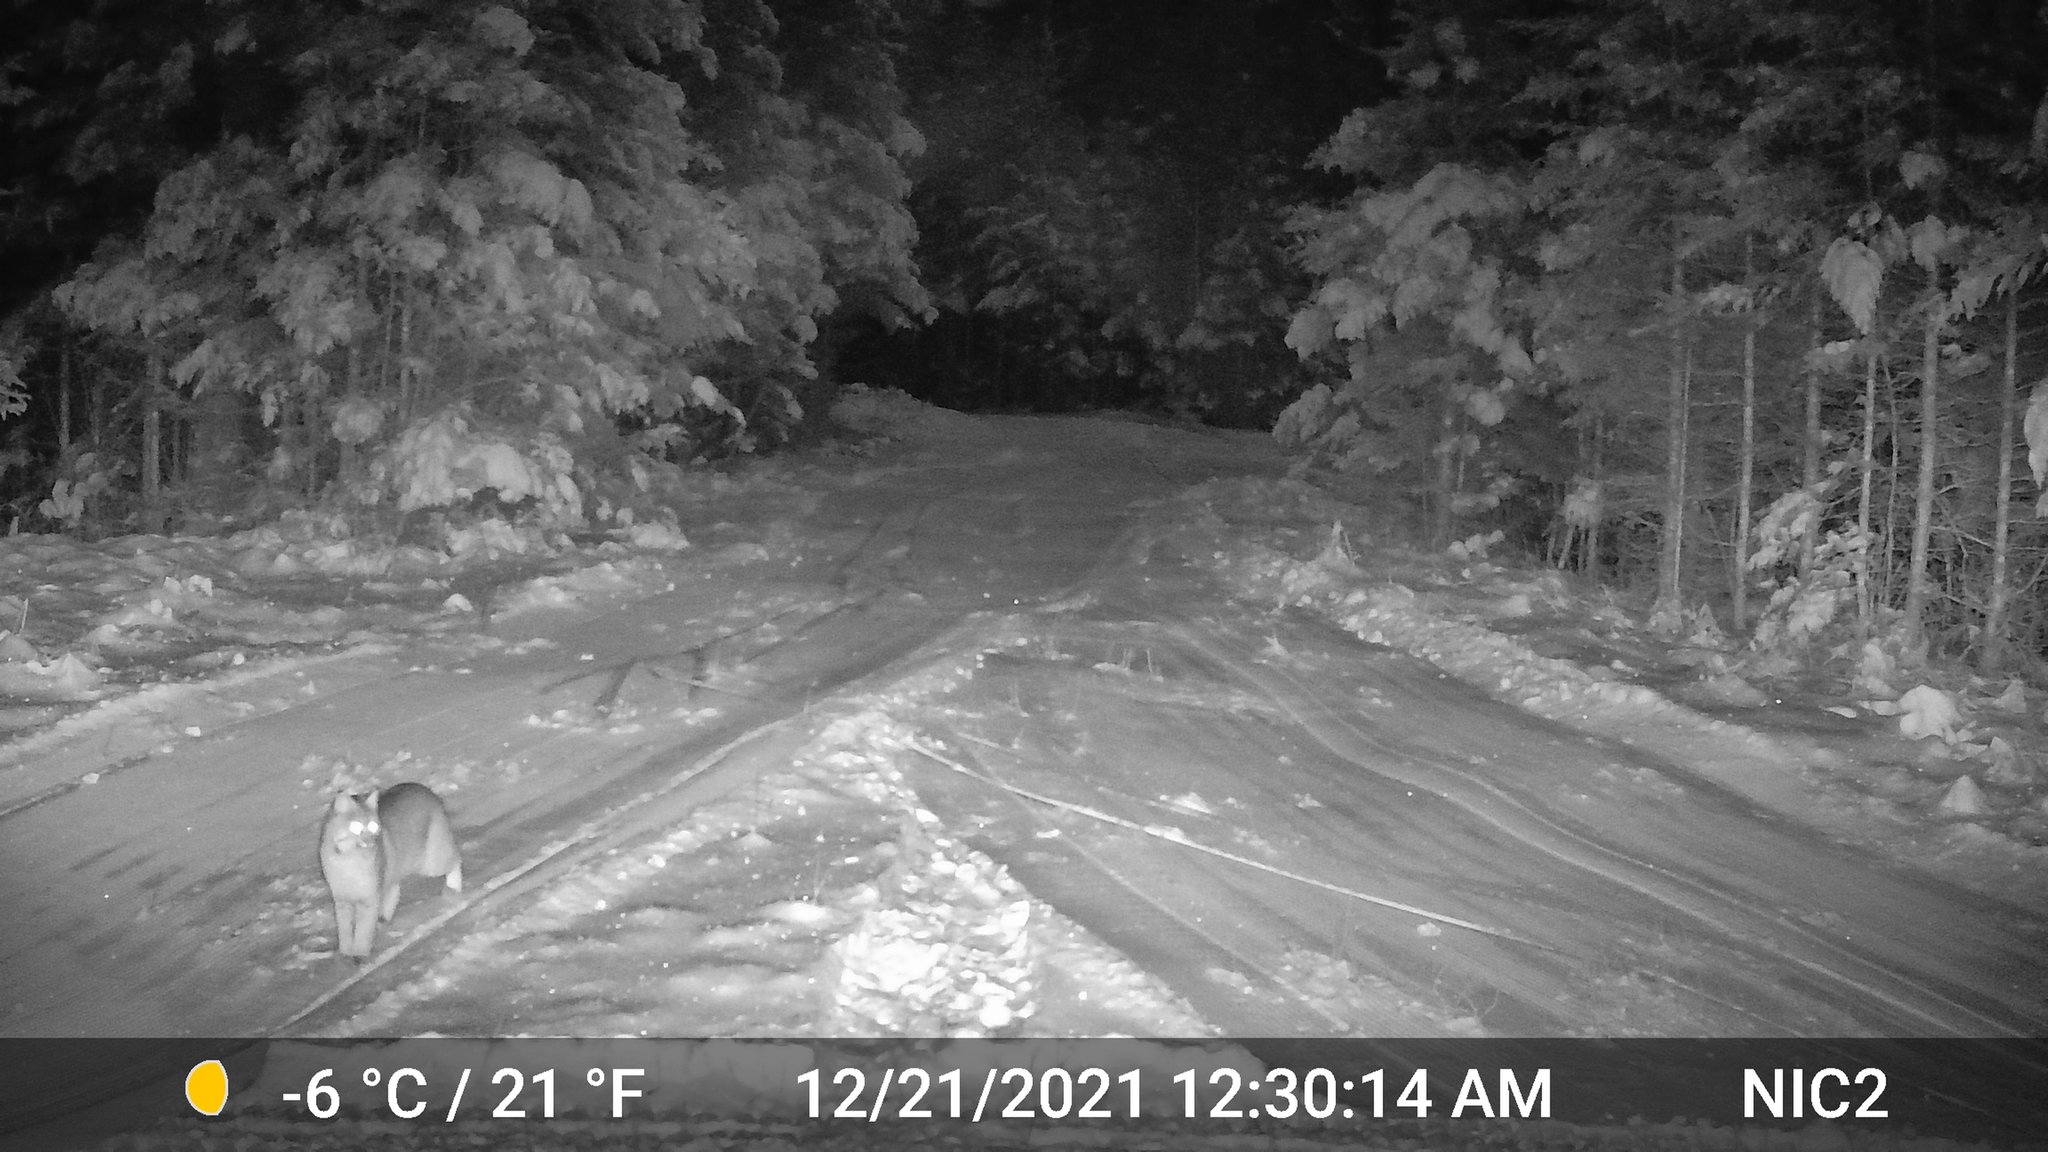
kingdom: Animalia
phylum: Chordata
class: Mammalia
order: Carnivora
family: Felidae
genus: Lynx
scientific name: Lynx rufus
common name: Bobcat
